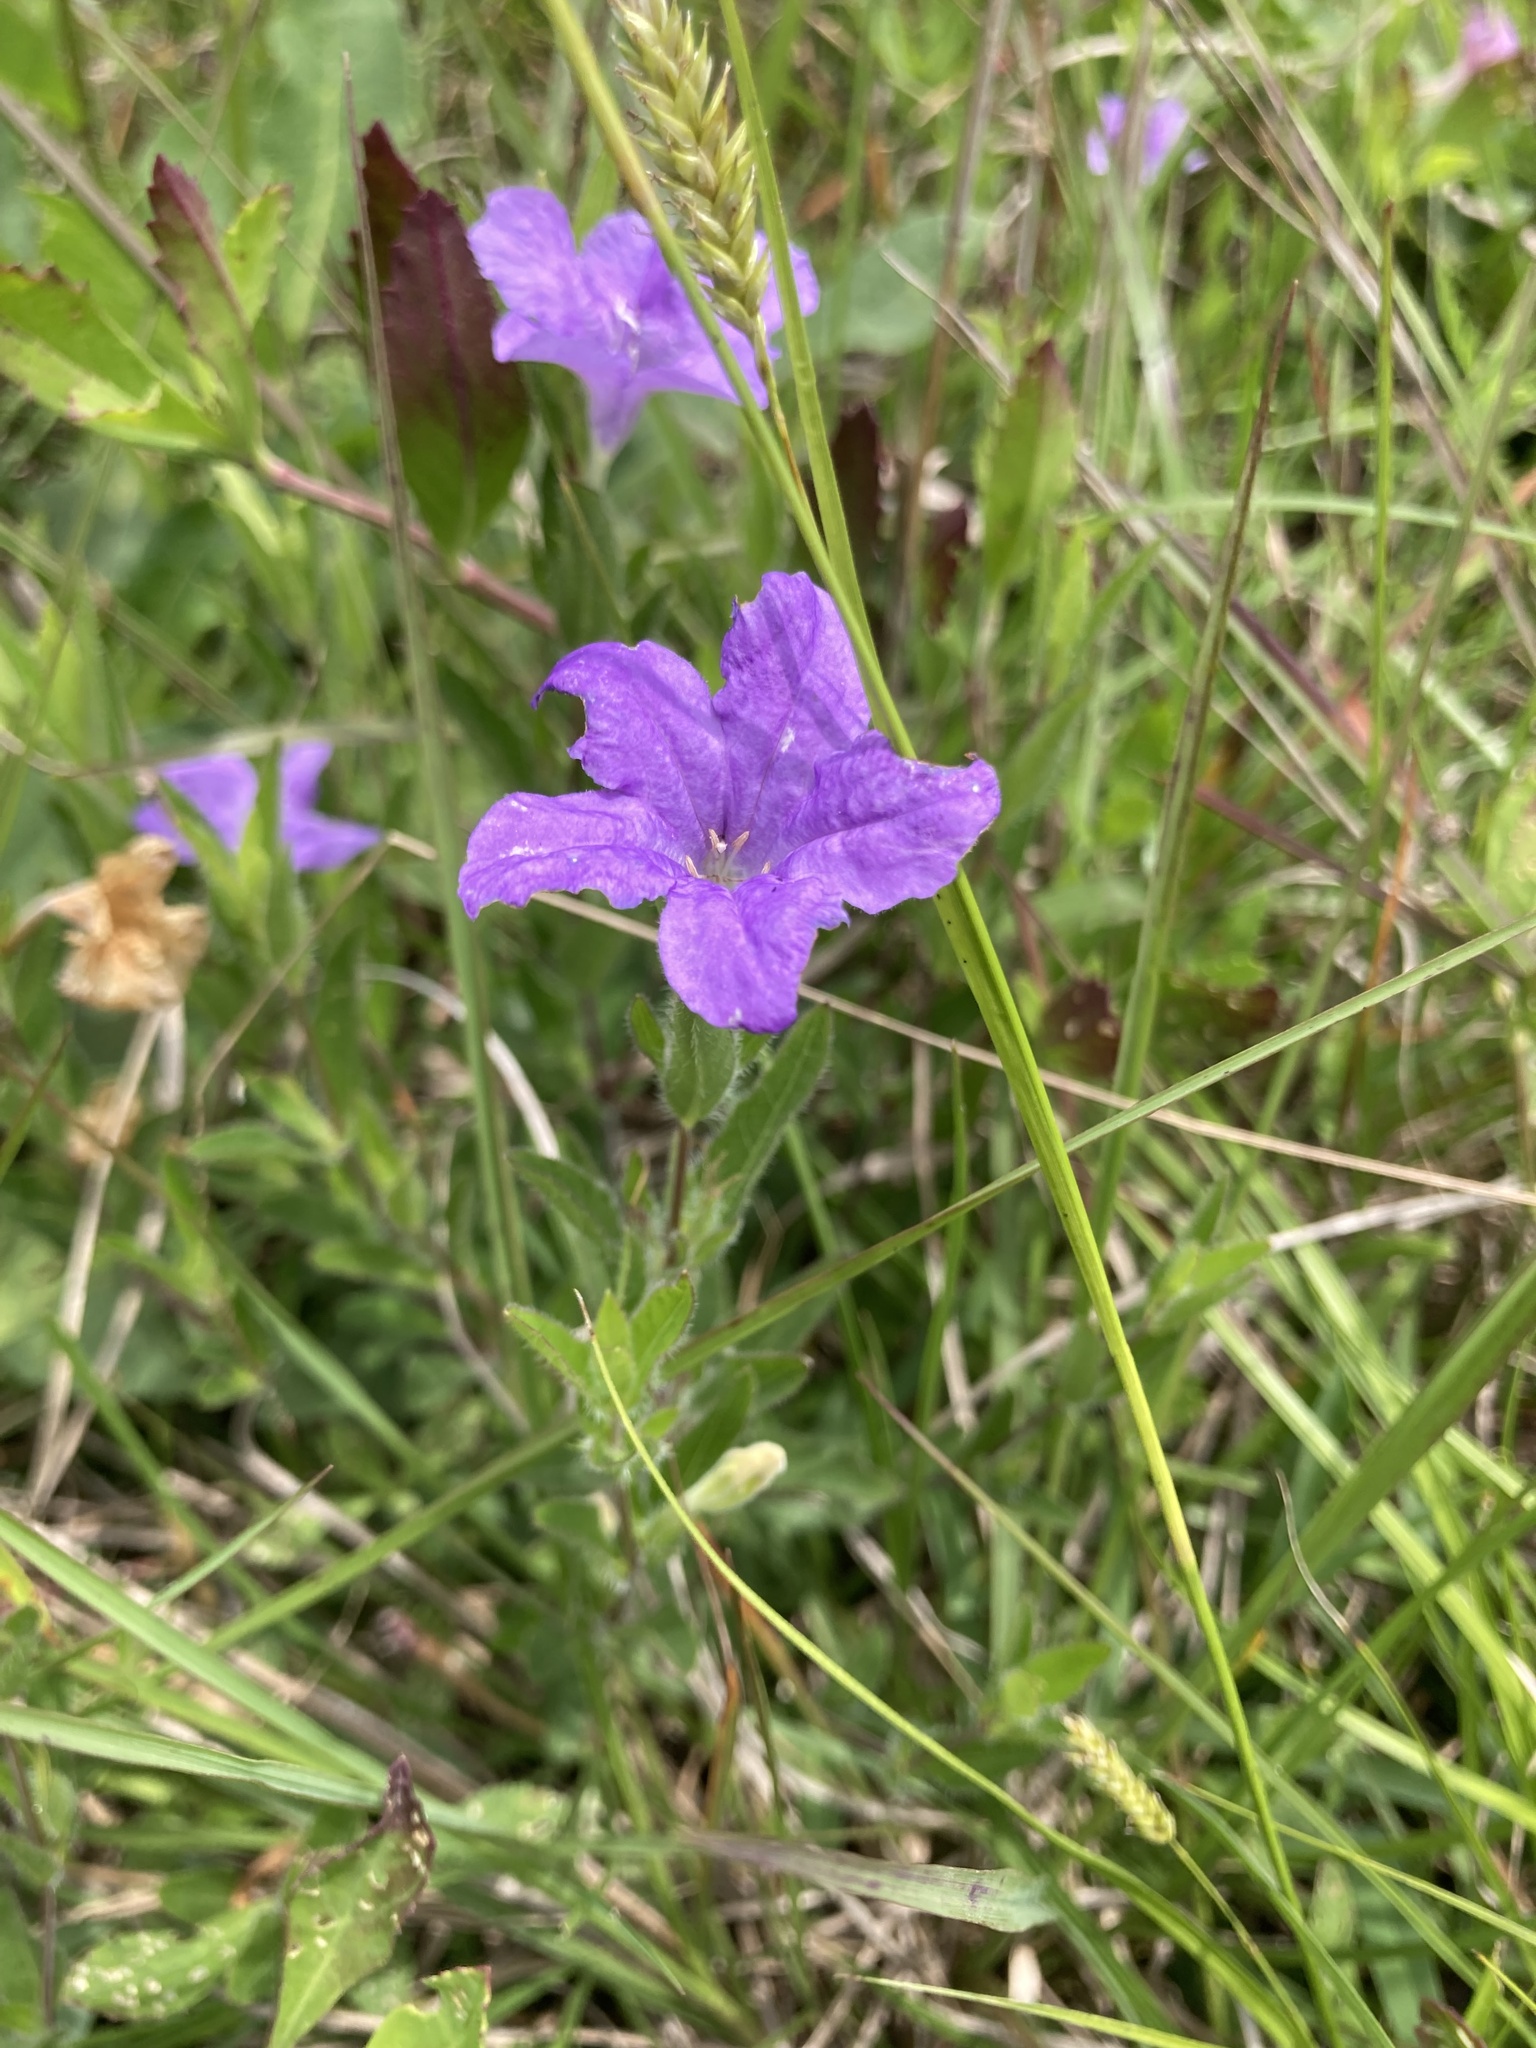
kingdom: Plantae
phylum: Tracheophyta
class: Magnoliopsida
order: Lamiales
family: Acanthaceae
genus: Ruellia
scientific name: Ruellia humilis
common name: Fringe-leaf ruellia
